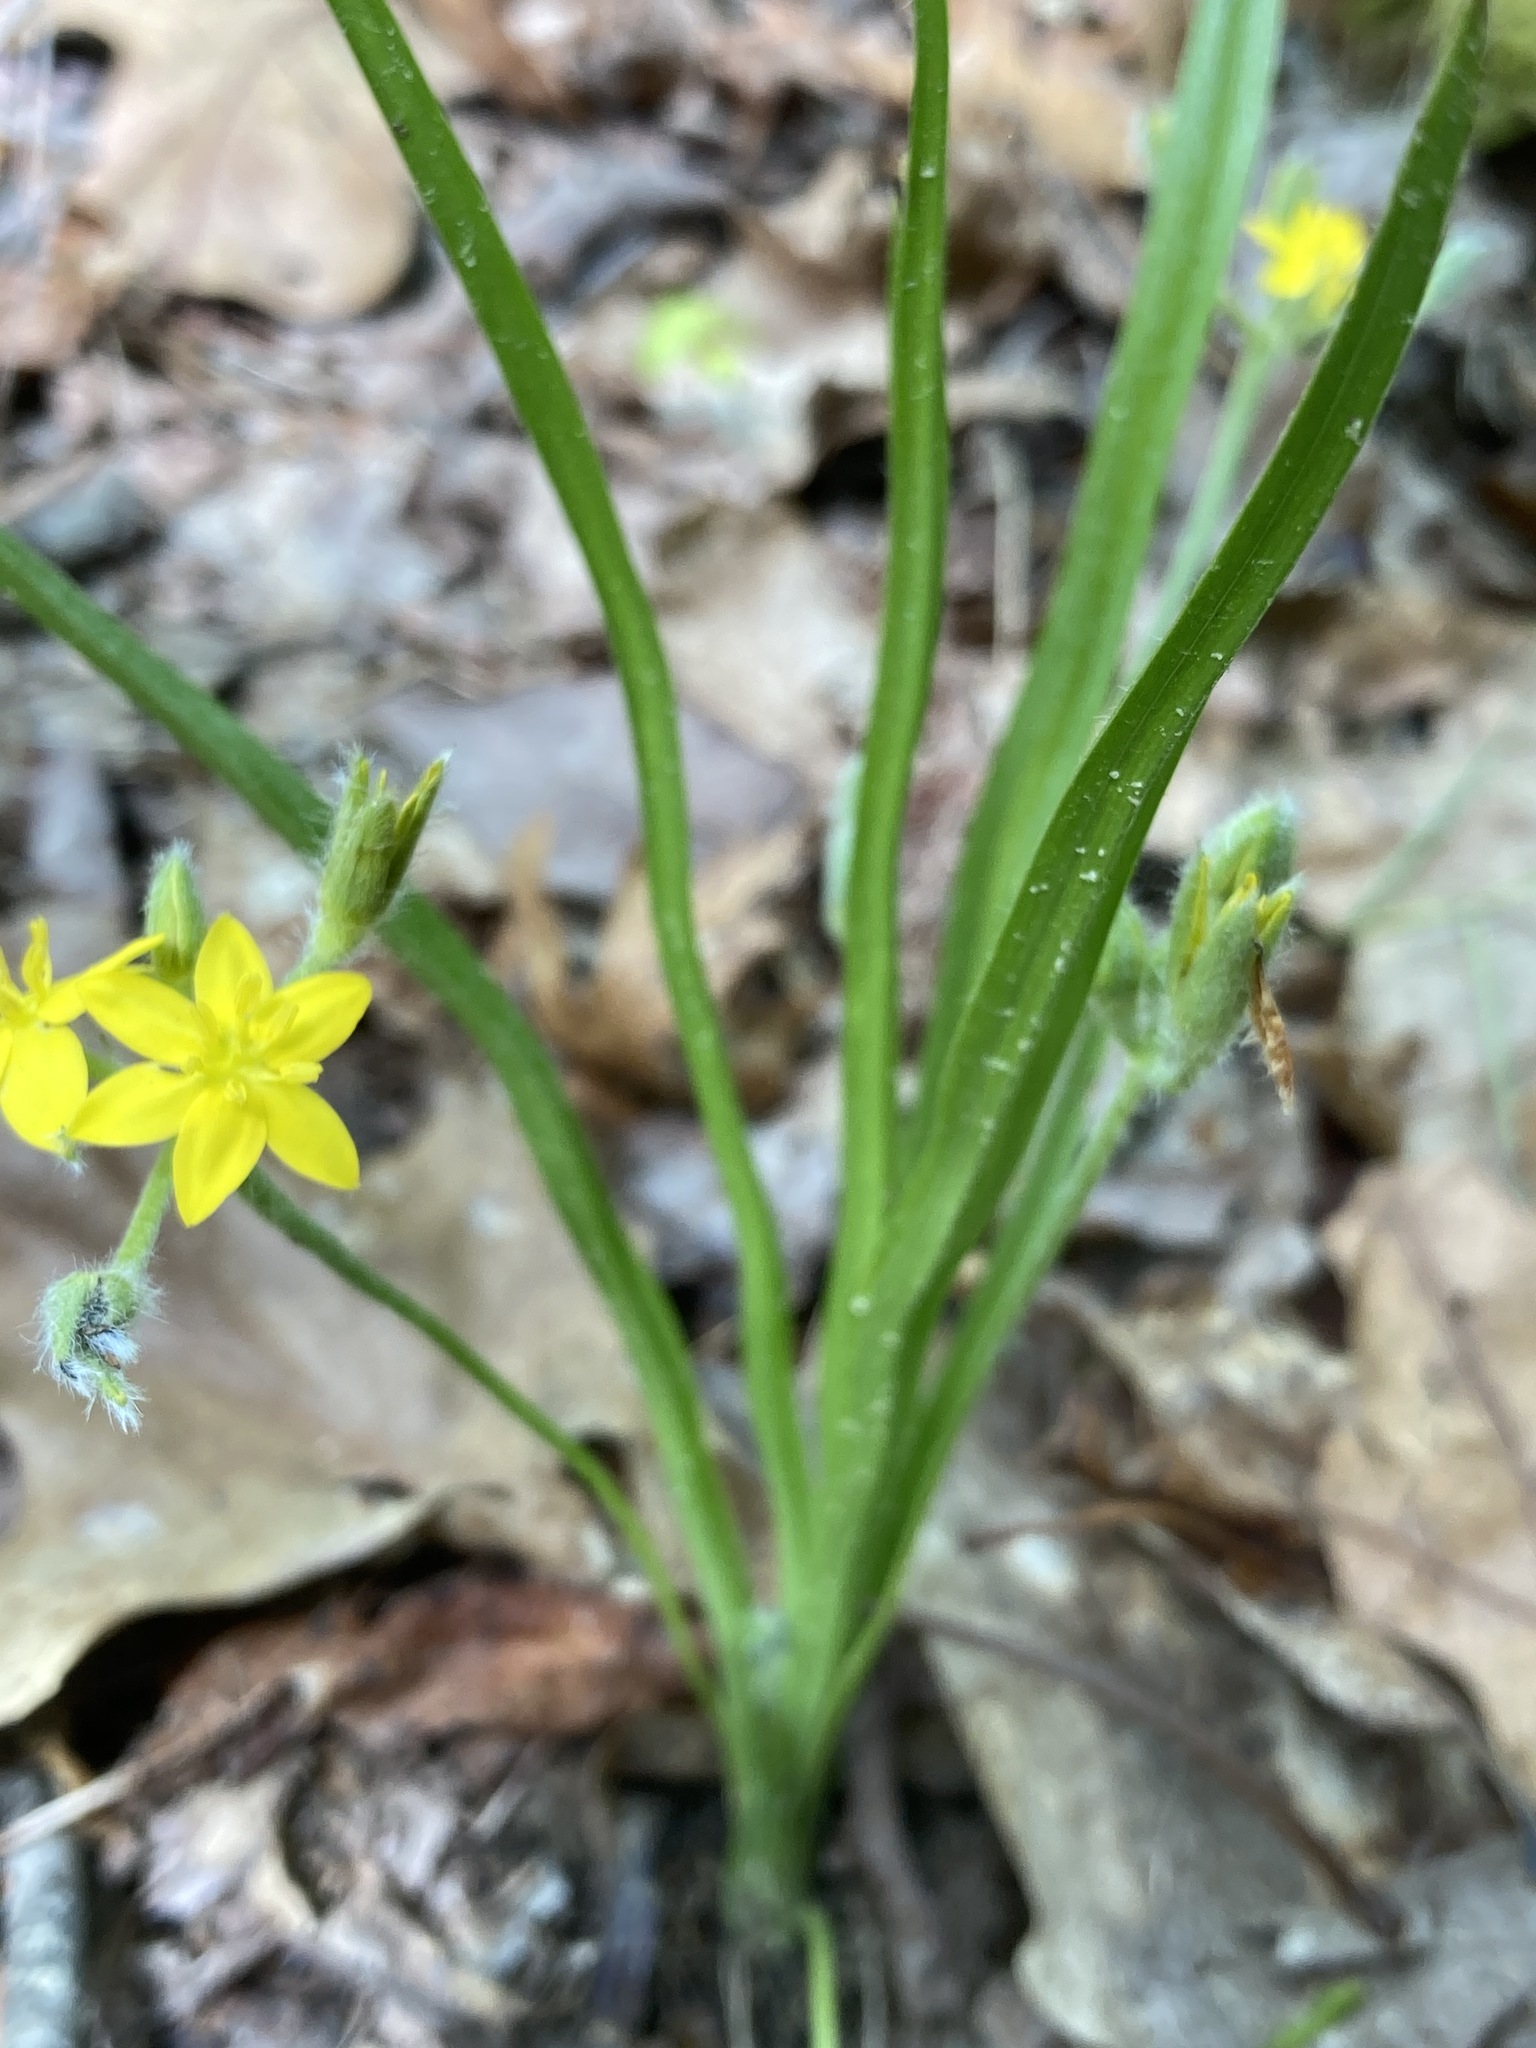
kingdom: Plantae
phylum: Tracheophyta
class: Liliopsida
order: Asparagales
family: Hypoxidaceae
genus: Hypoxis
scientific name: Hypoxis hirsuta
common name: Common goldstar
